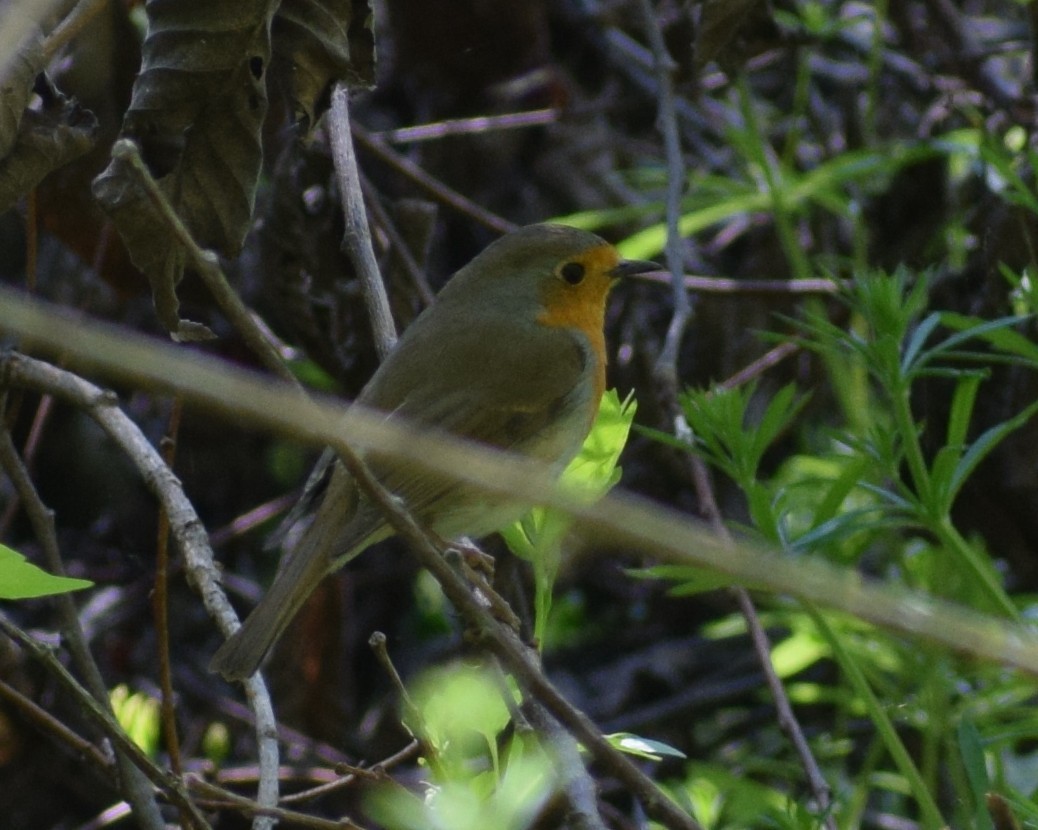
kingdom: Animalia
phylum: Chordata
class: Aves
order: Passeriformes
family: Muscicapidae
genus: Erithacus
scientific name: Erithacus rubecula
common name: European robin
